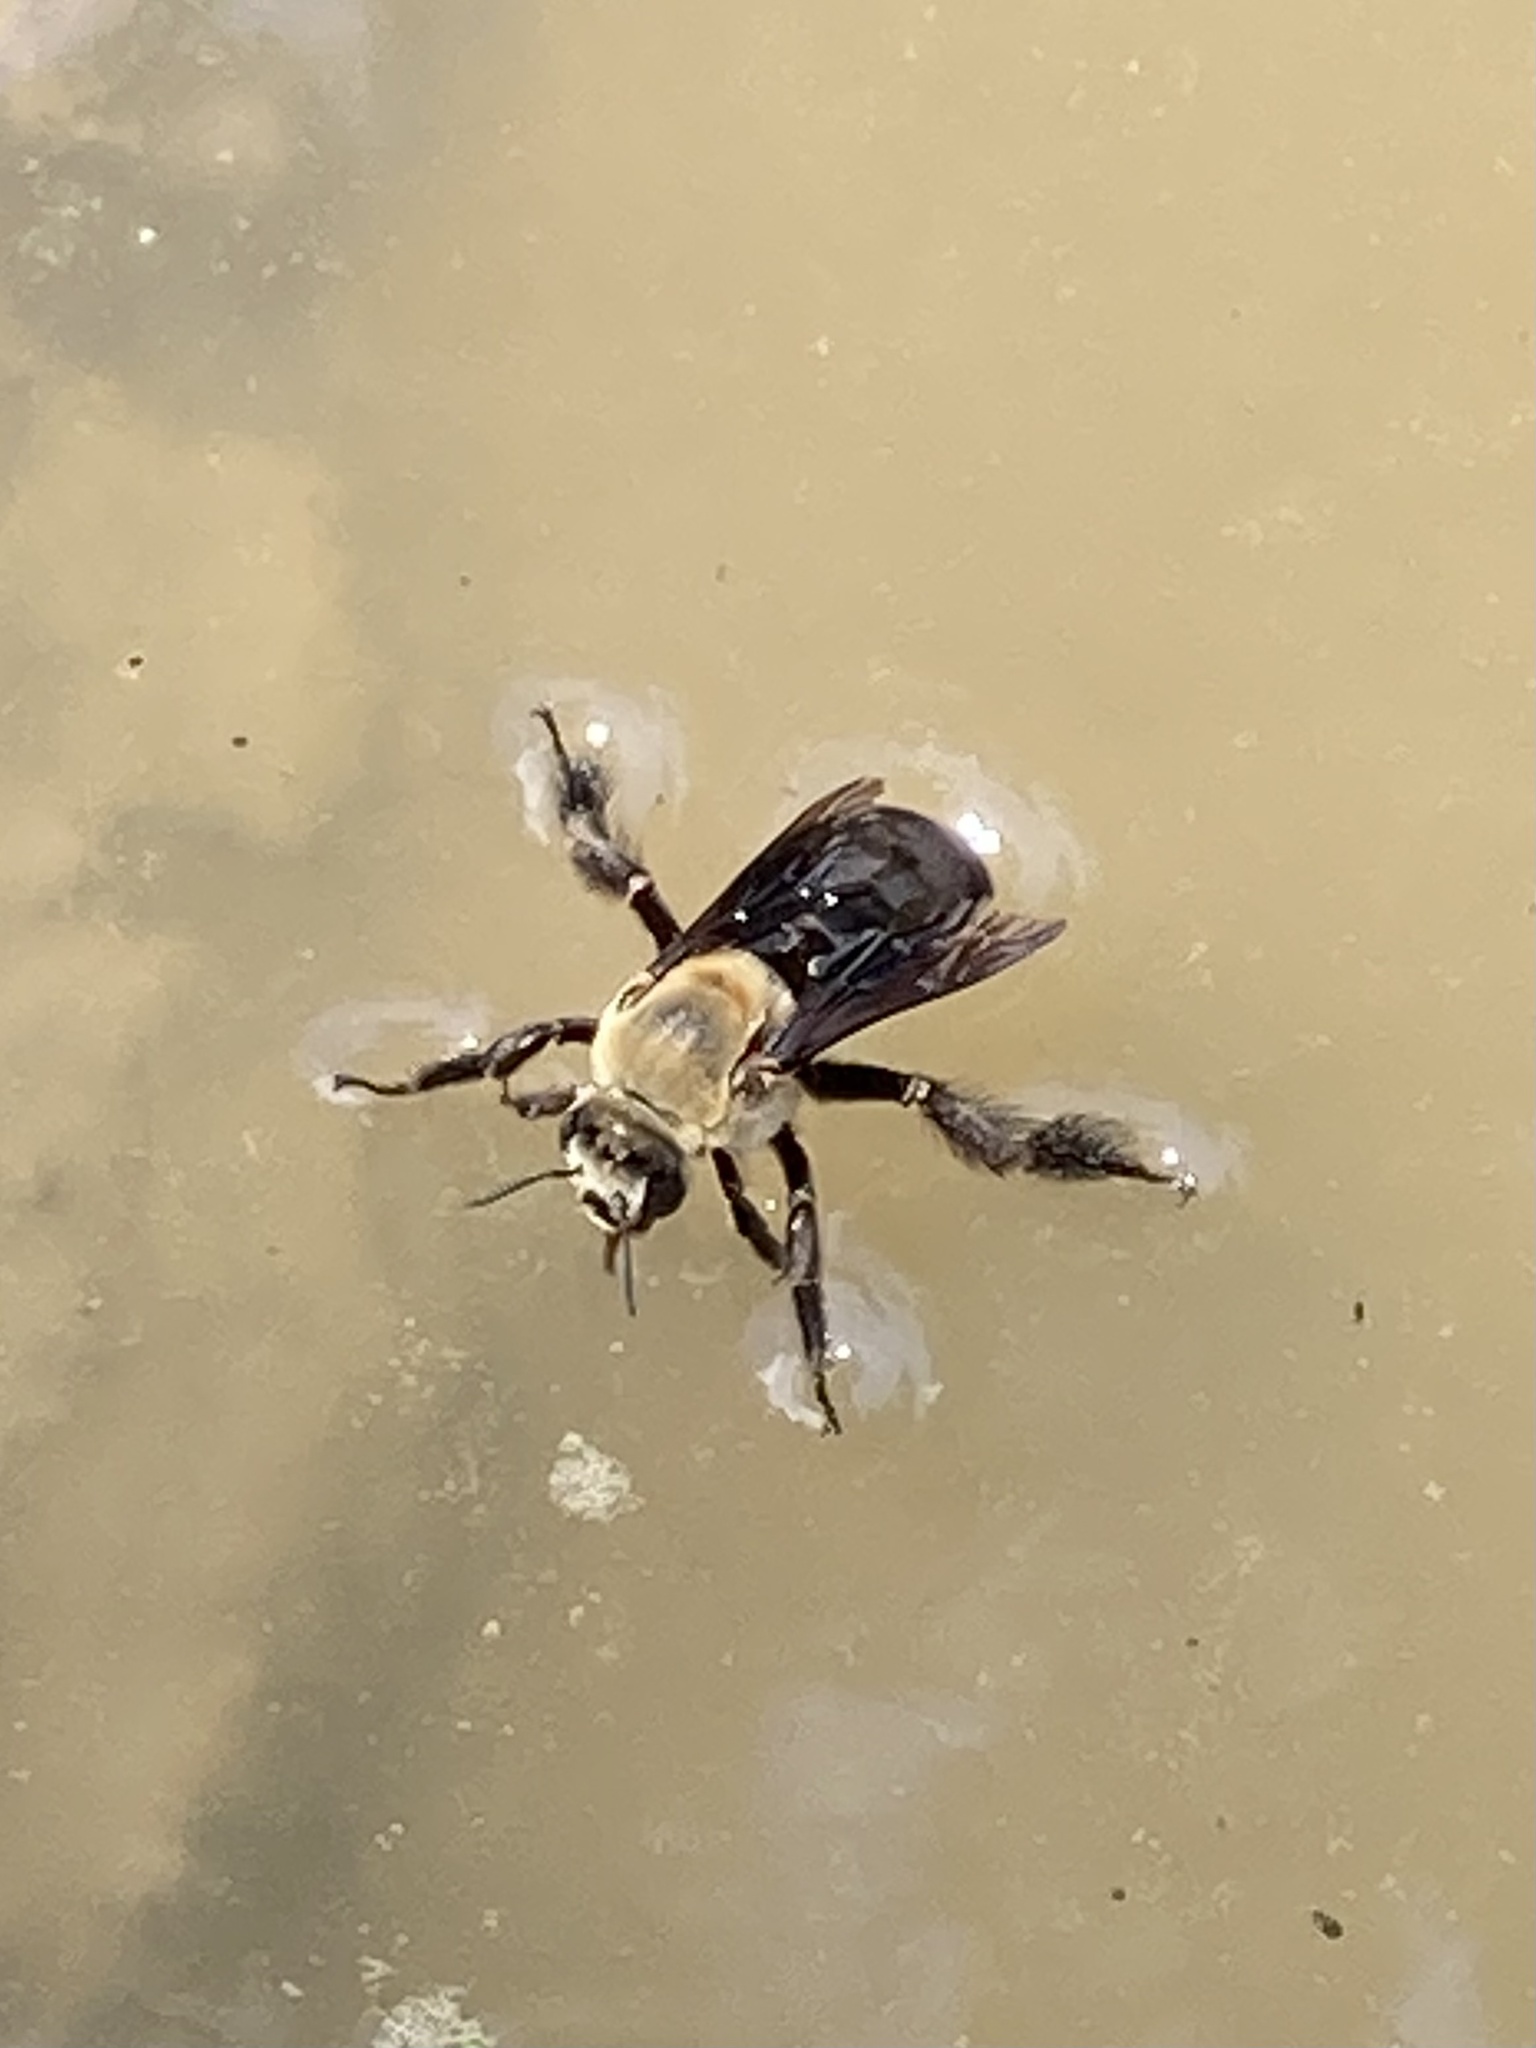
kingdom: Animalia
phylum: Arthropoda
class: Insecta
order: Hymenoptera
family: Apidae
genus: Ptilothrix
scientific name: Ptilothrix bombiformis
